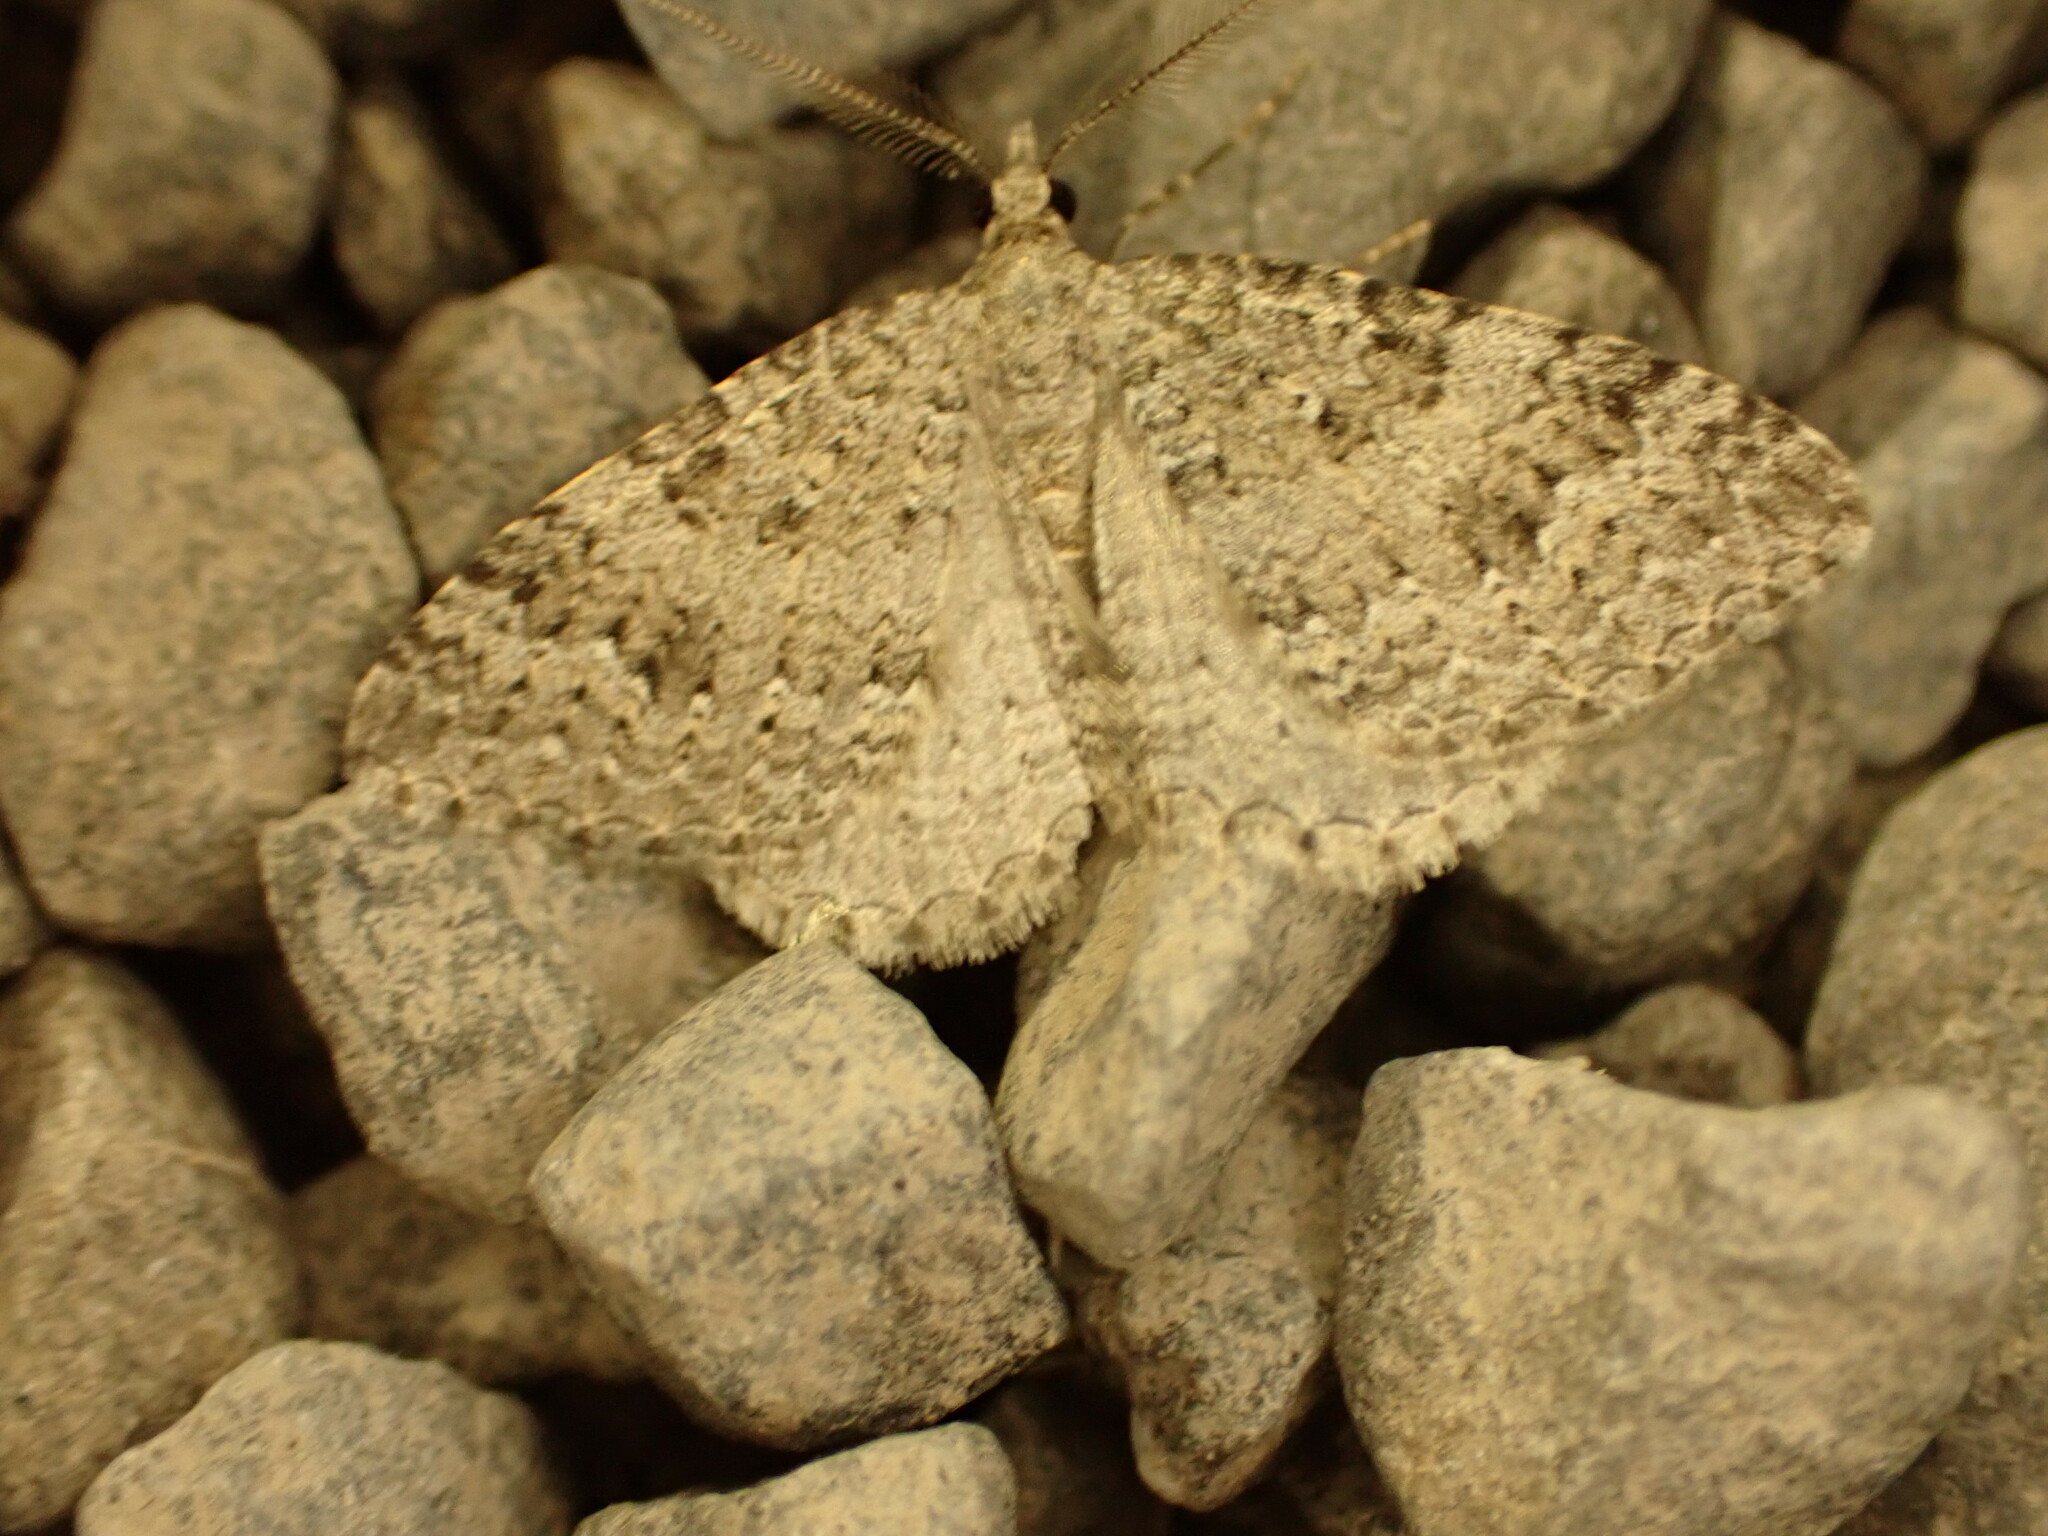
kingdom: Animalia
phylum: Arthropoda
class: Insecta
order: Lepidoptera
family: Geometridae
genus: Helastia
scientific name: Helastia corcularia
